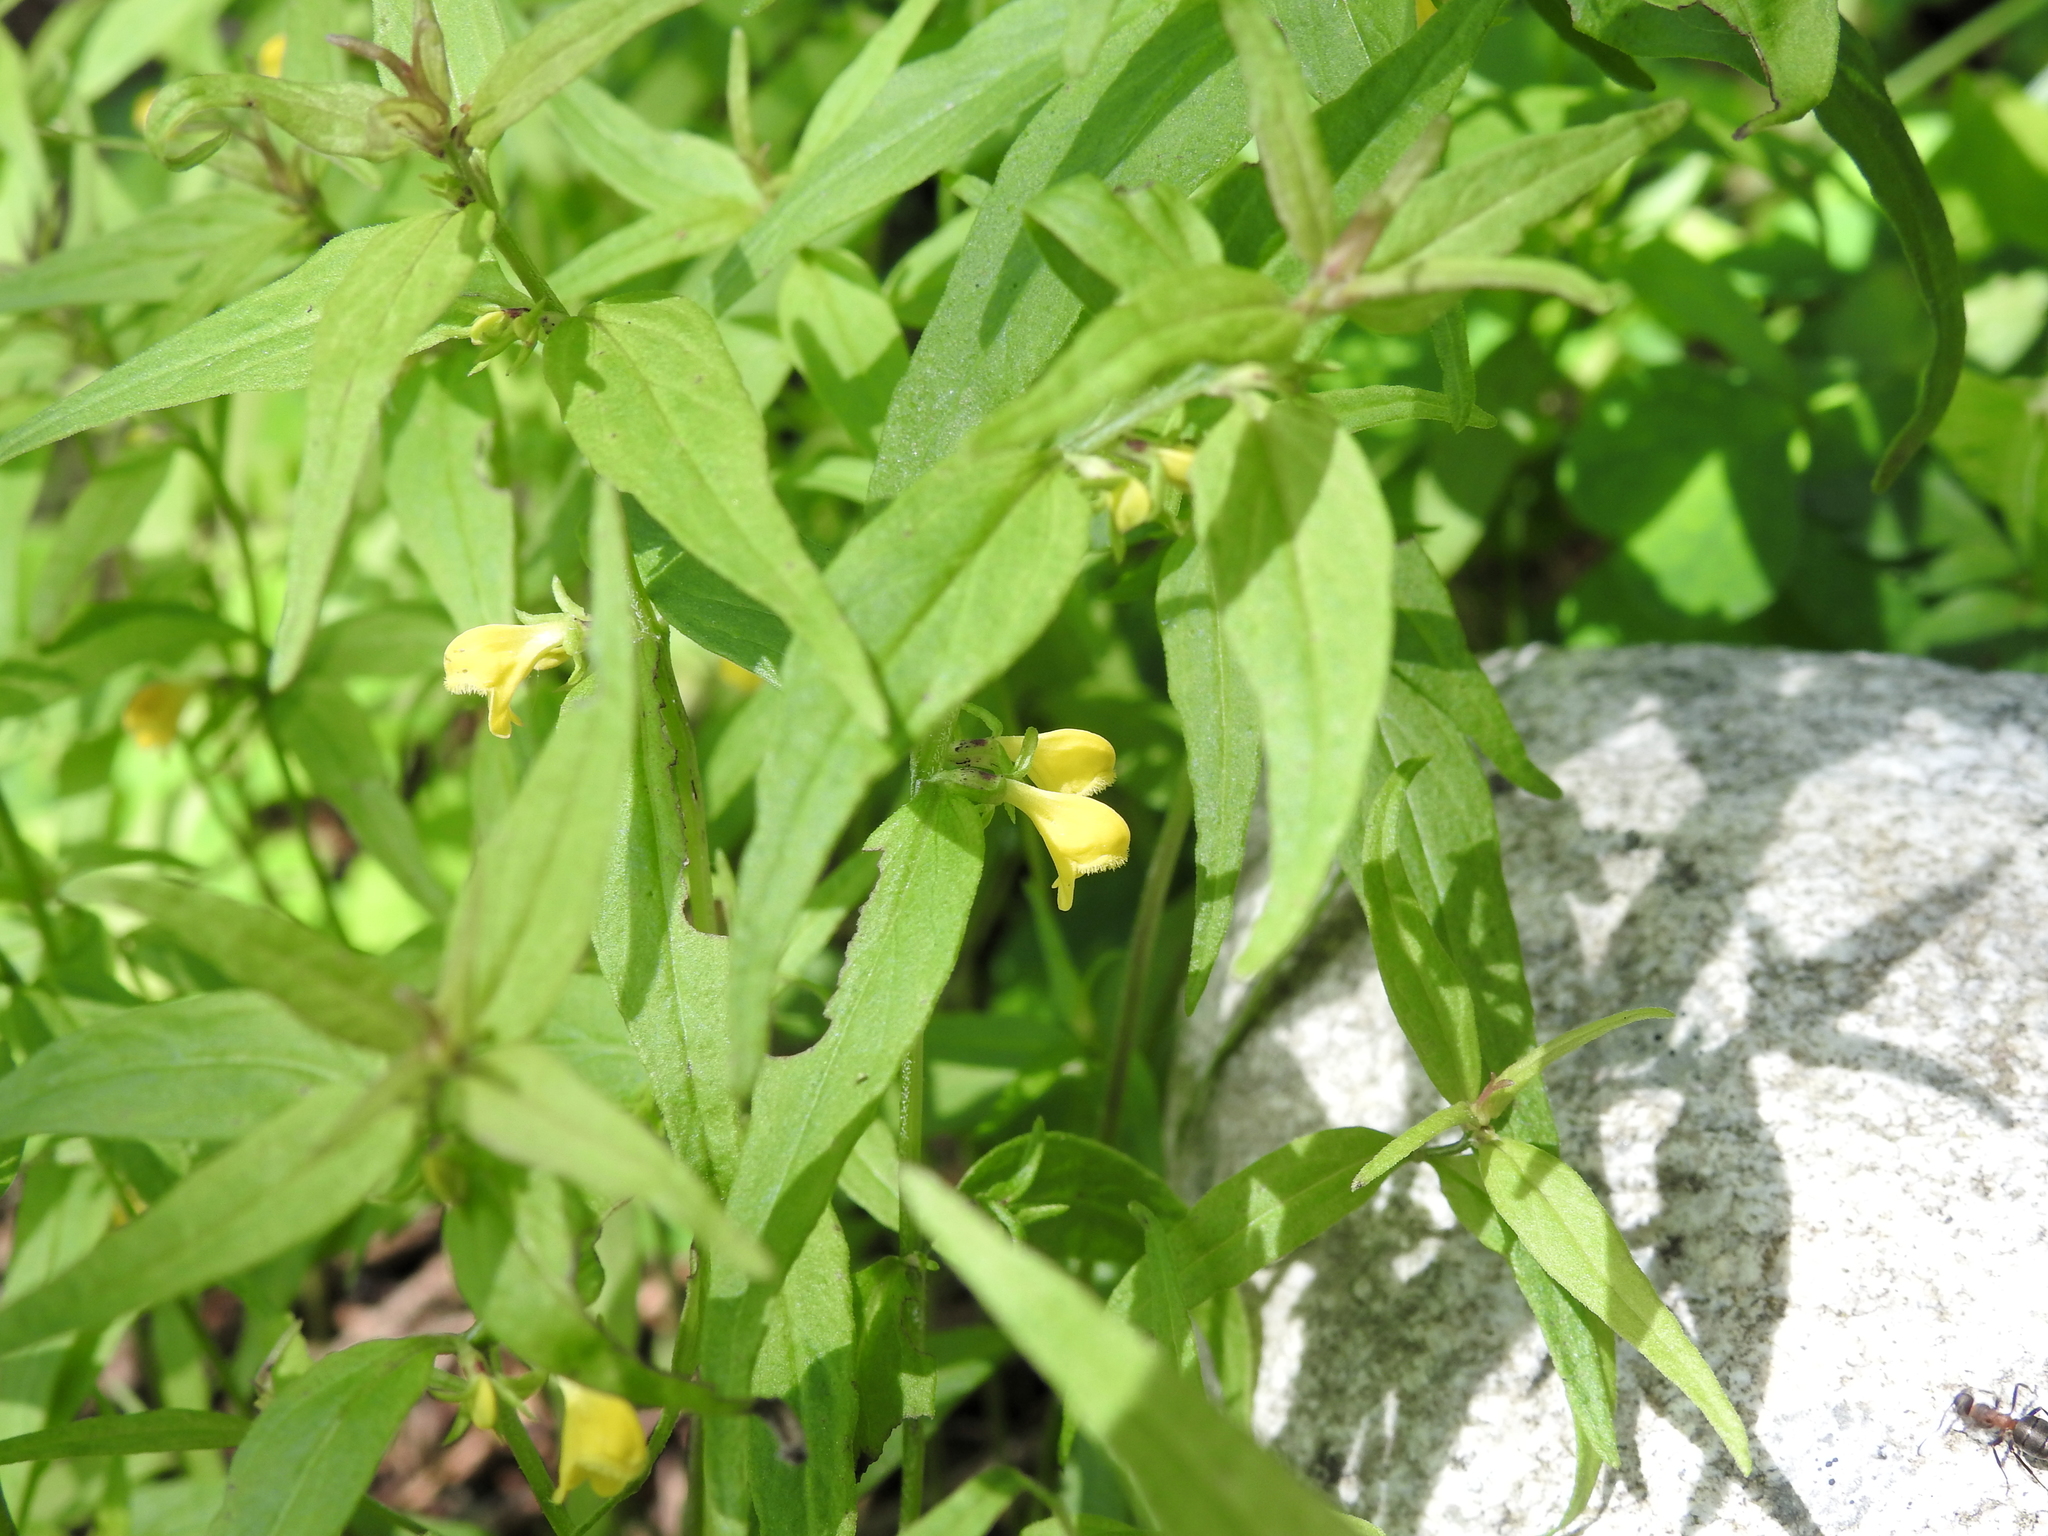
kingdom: Plantae
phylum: Tracheophyta
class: Magnoliopsida
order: Lamiales
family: Orobanchaceae
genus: Melampyrum
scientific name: Melampyrum sylvaticum
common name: Small cow-wheat
